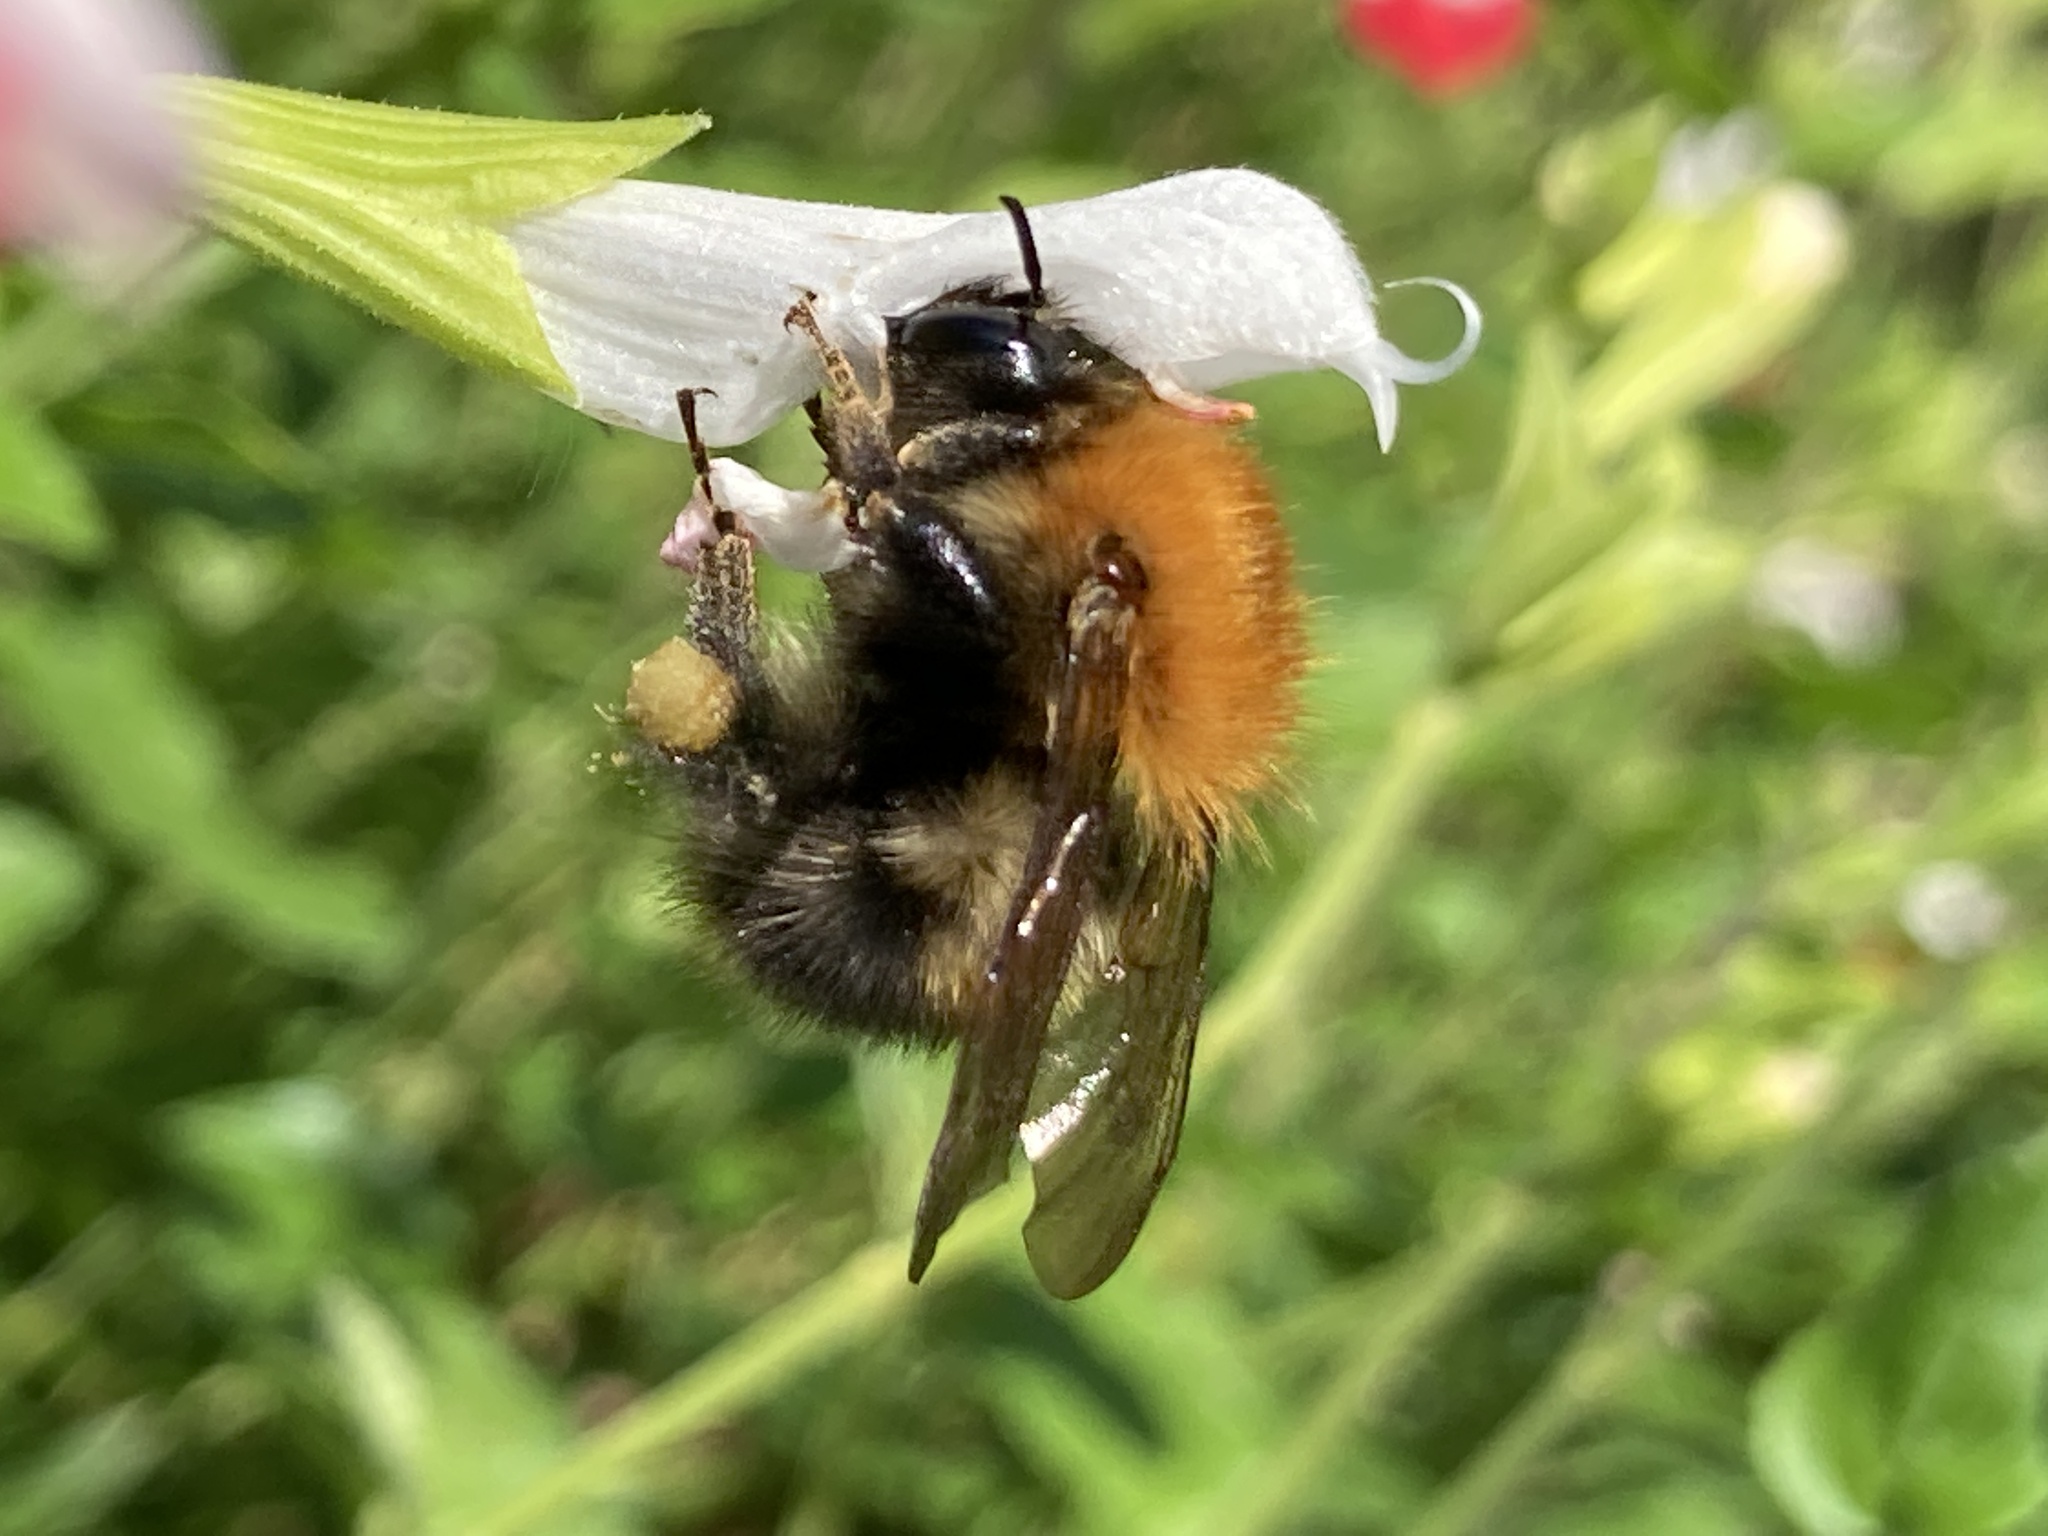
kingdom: Animalia
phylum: Arthropoda
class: Insecta
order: Hymenoptera
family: Apidae
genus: Bombus
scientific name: Bombus pascuorum
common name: Common carder bee
